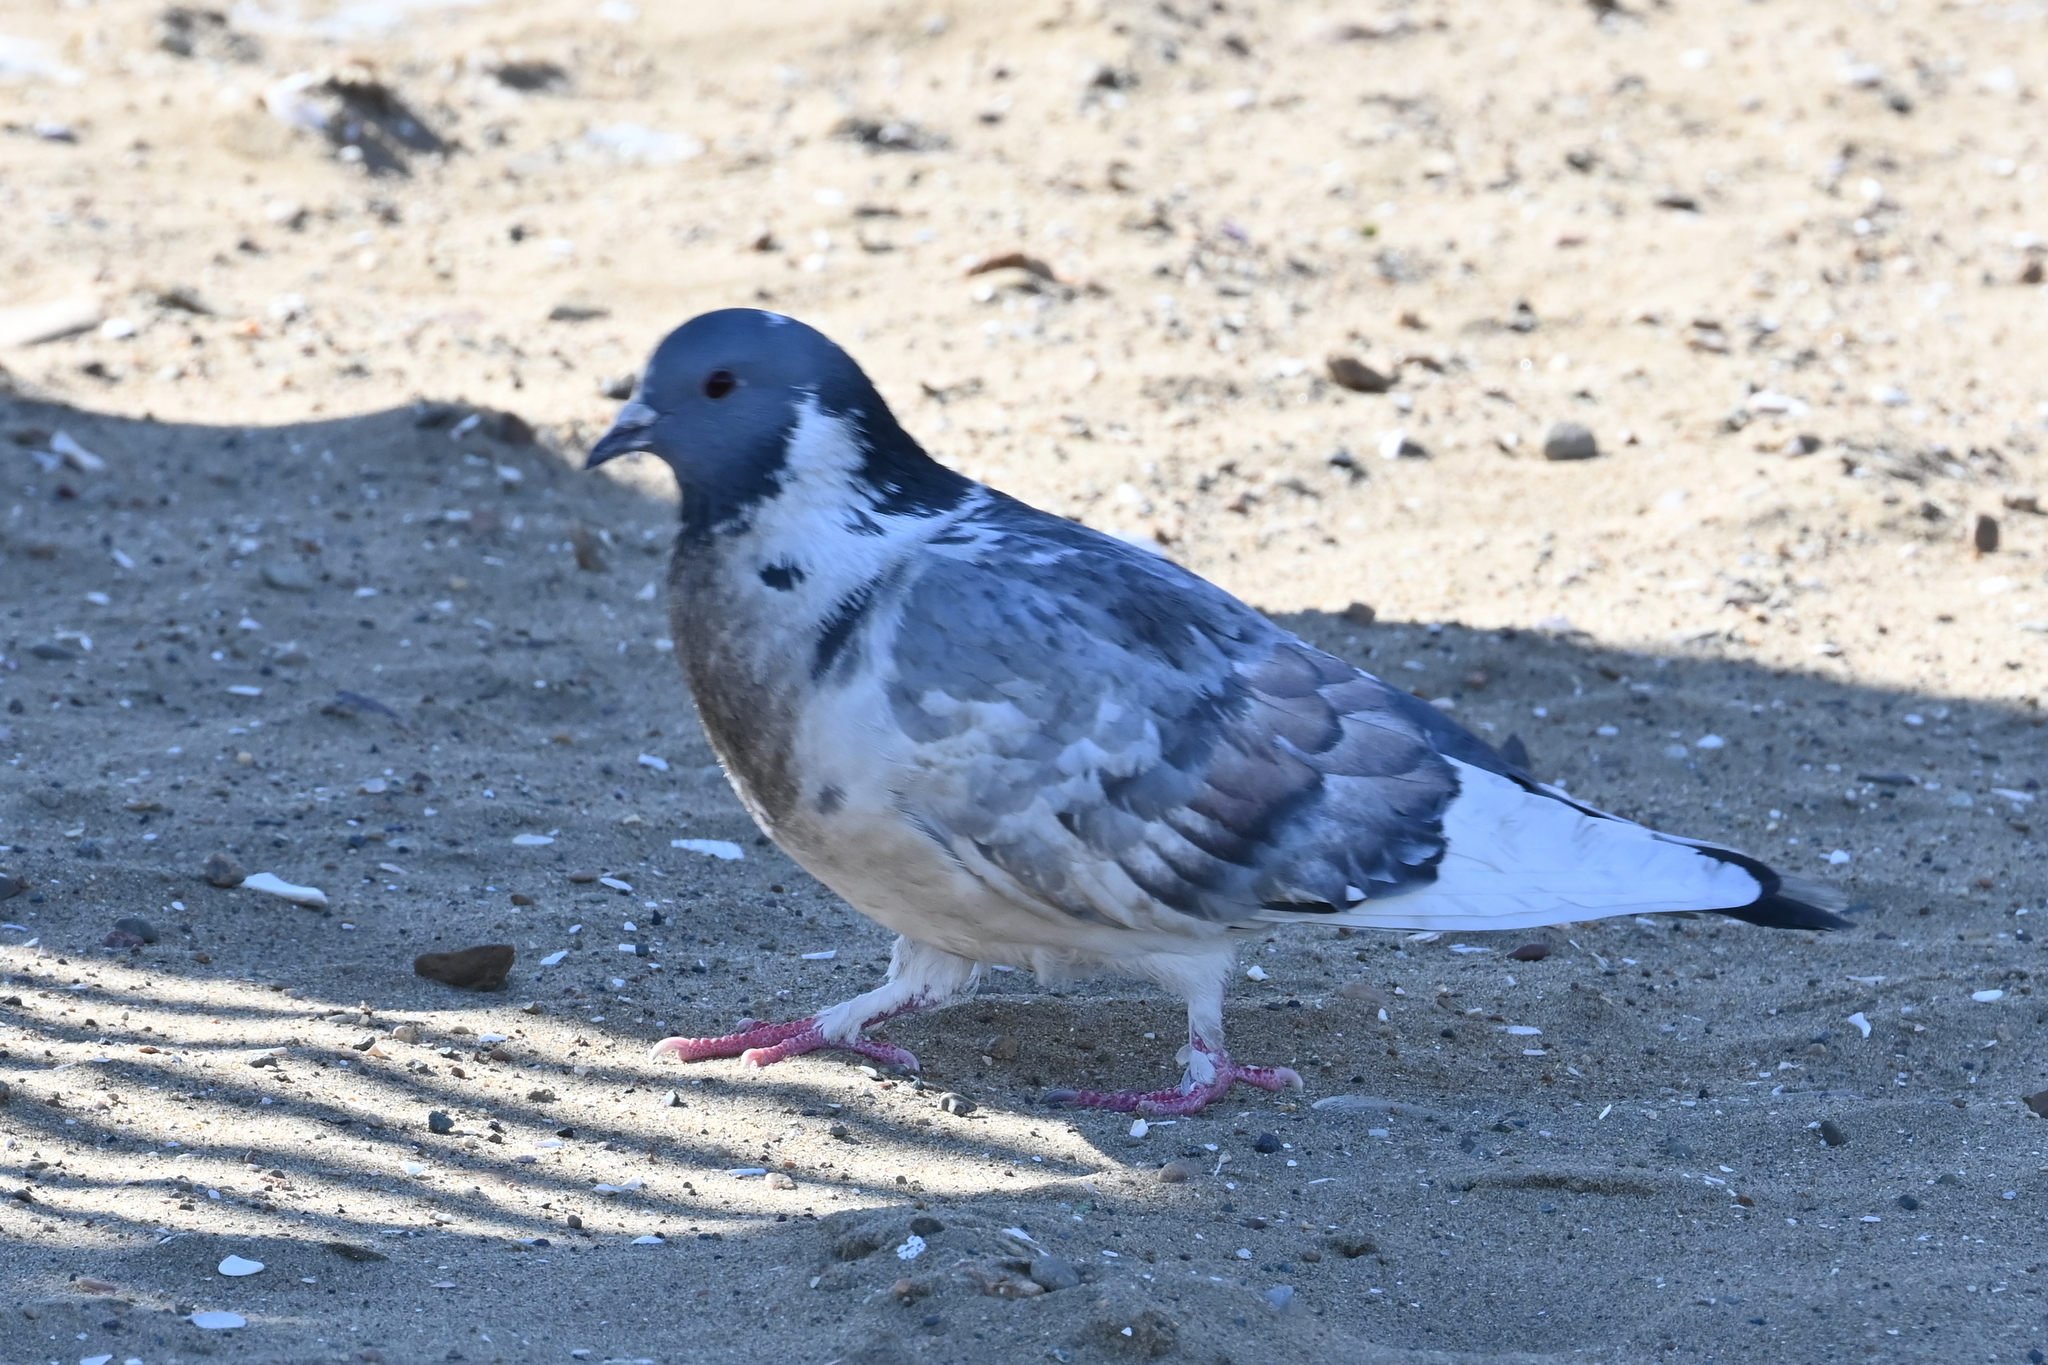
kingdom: Animalia
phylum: Chordata
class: Aves
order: Columbiformes
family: Columbidae
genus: Columba
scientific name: Columba livia
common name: Rock pigeon
